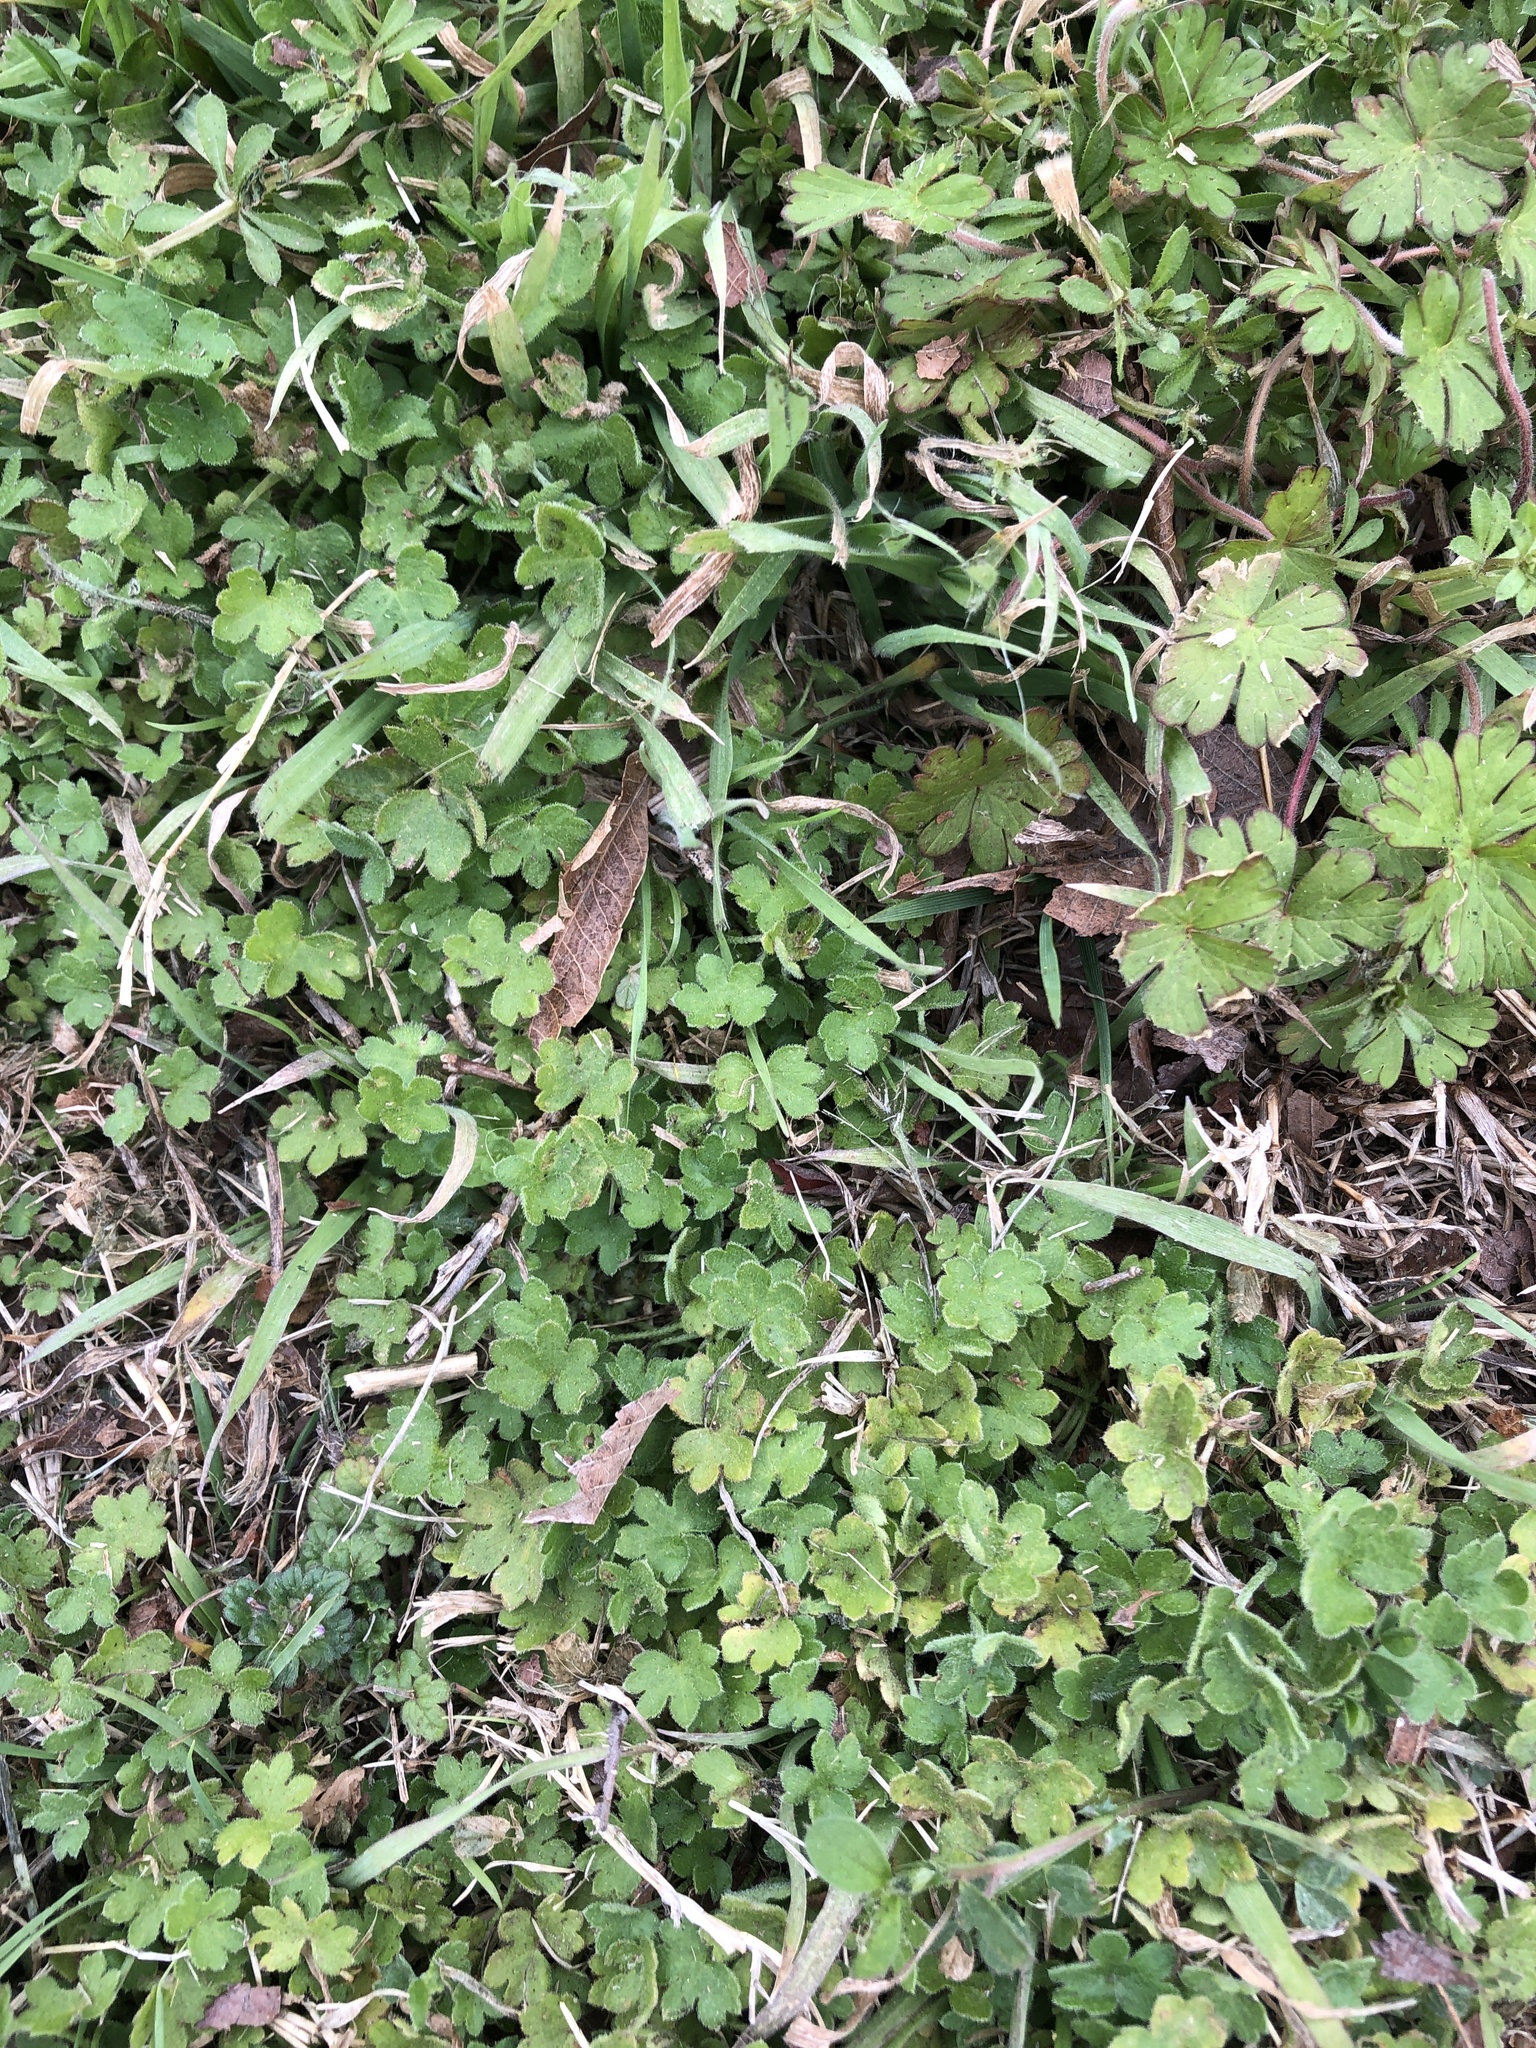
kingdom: Plantae
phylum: Tracheophyta
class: Magnoliopsida
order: Apiales
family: Apiaceae
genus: Bowlesia
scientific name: Bowlesia incana
